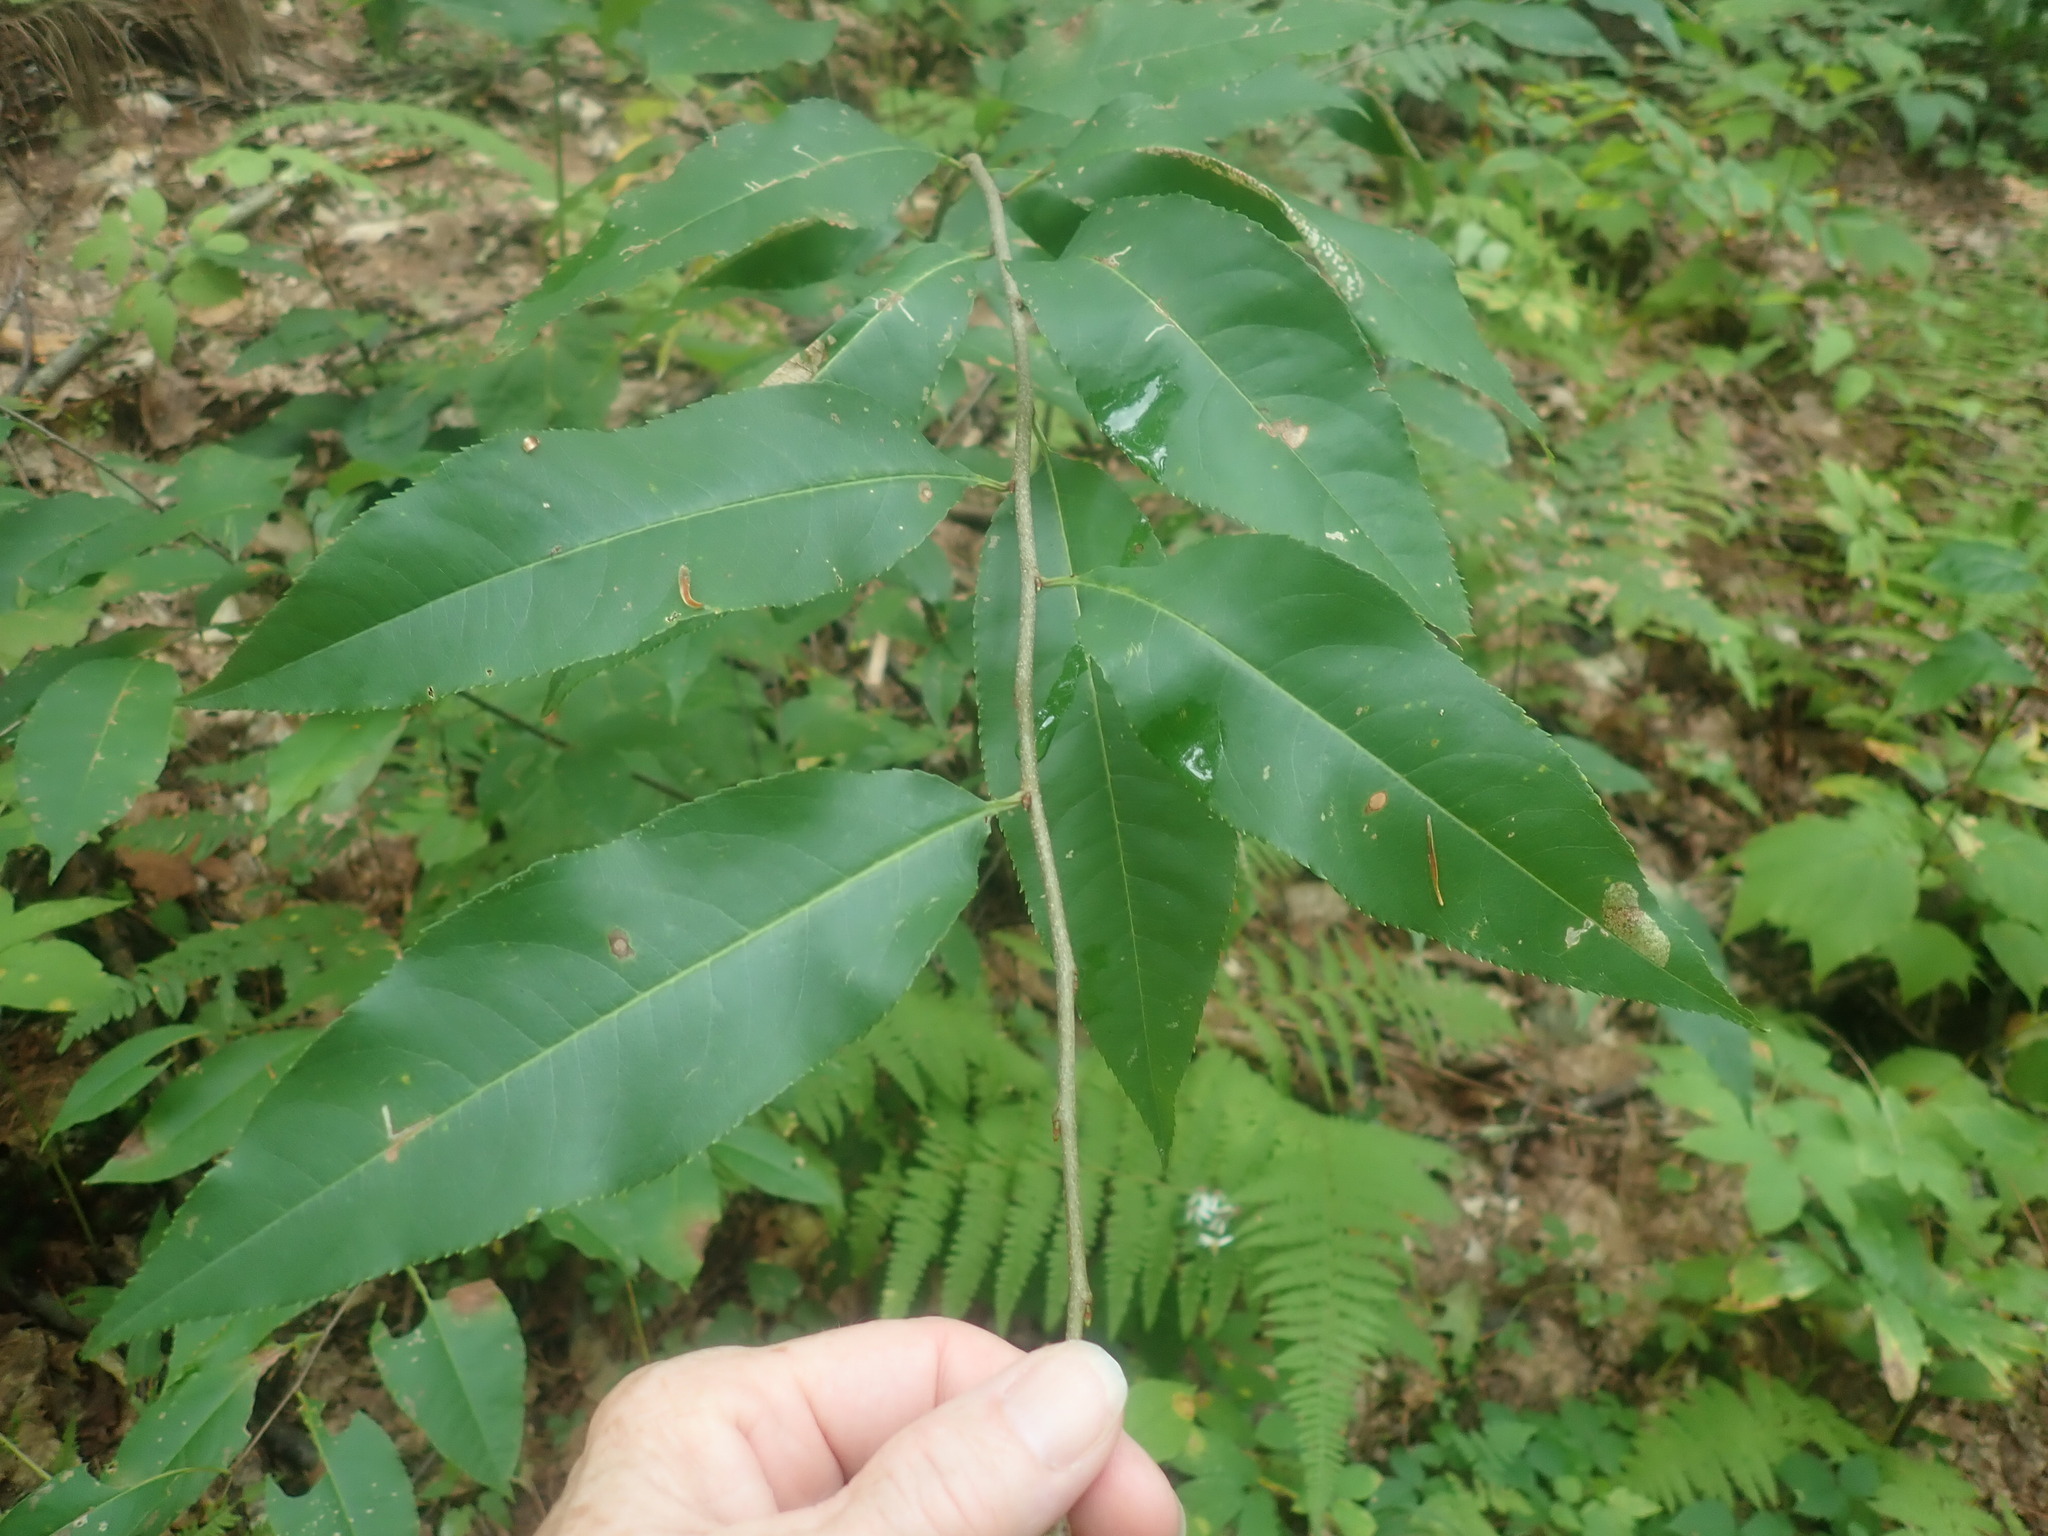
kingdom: Plantae
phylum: Tracheophyta
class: Magnoliopsida
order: Rosales
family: Rosaceae
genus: Prunus
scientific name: Prunus serotina
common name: Black cherry
